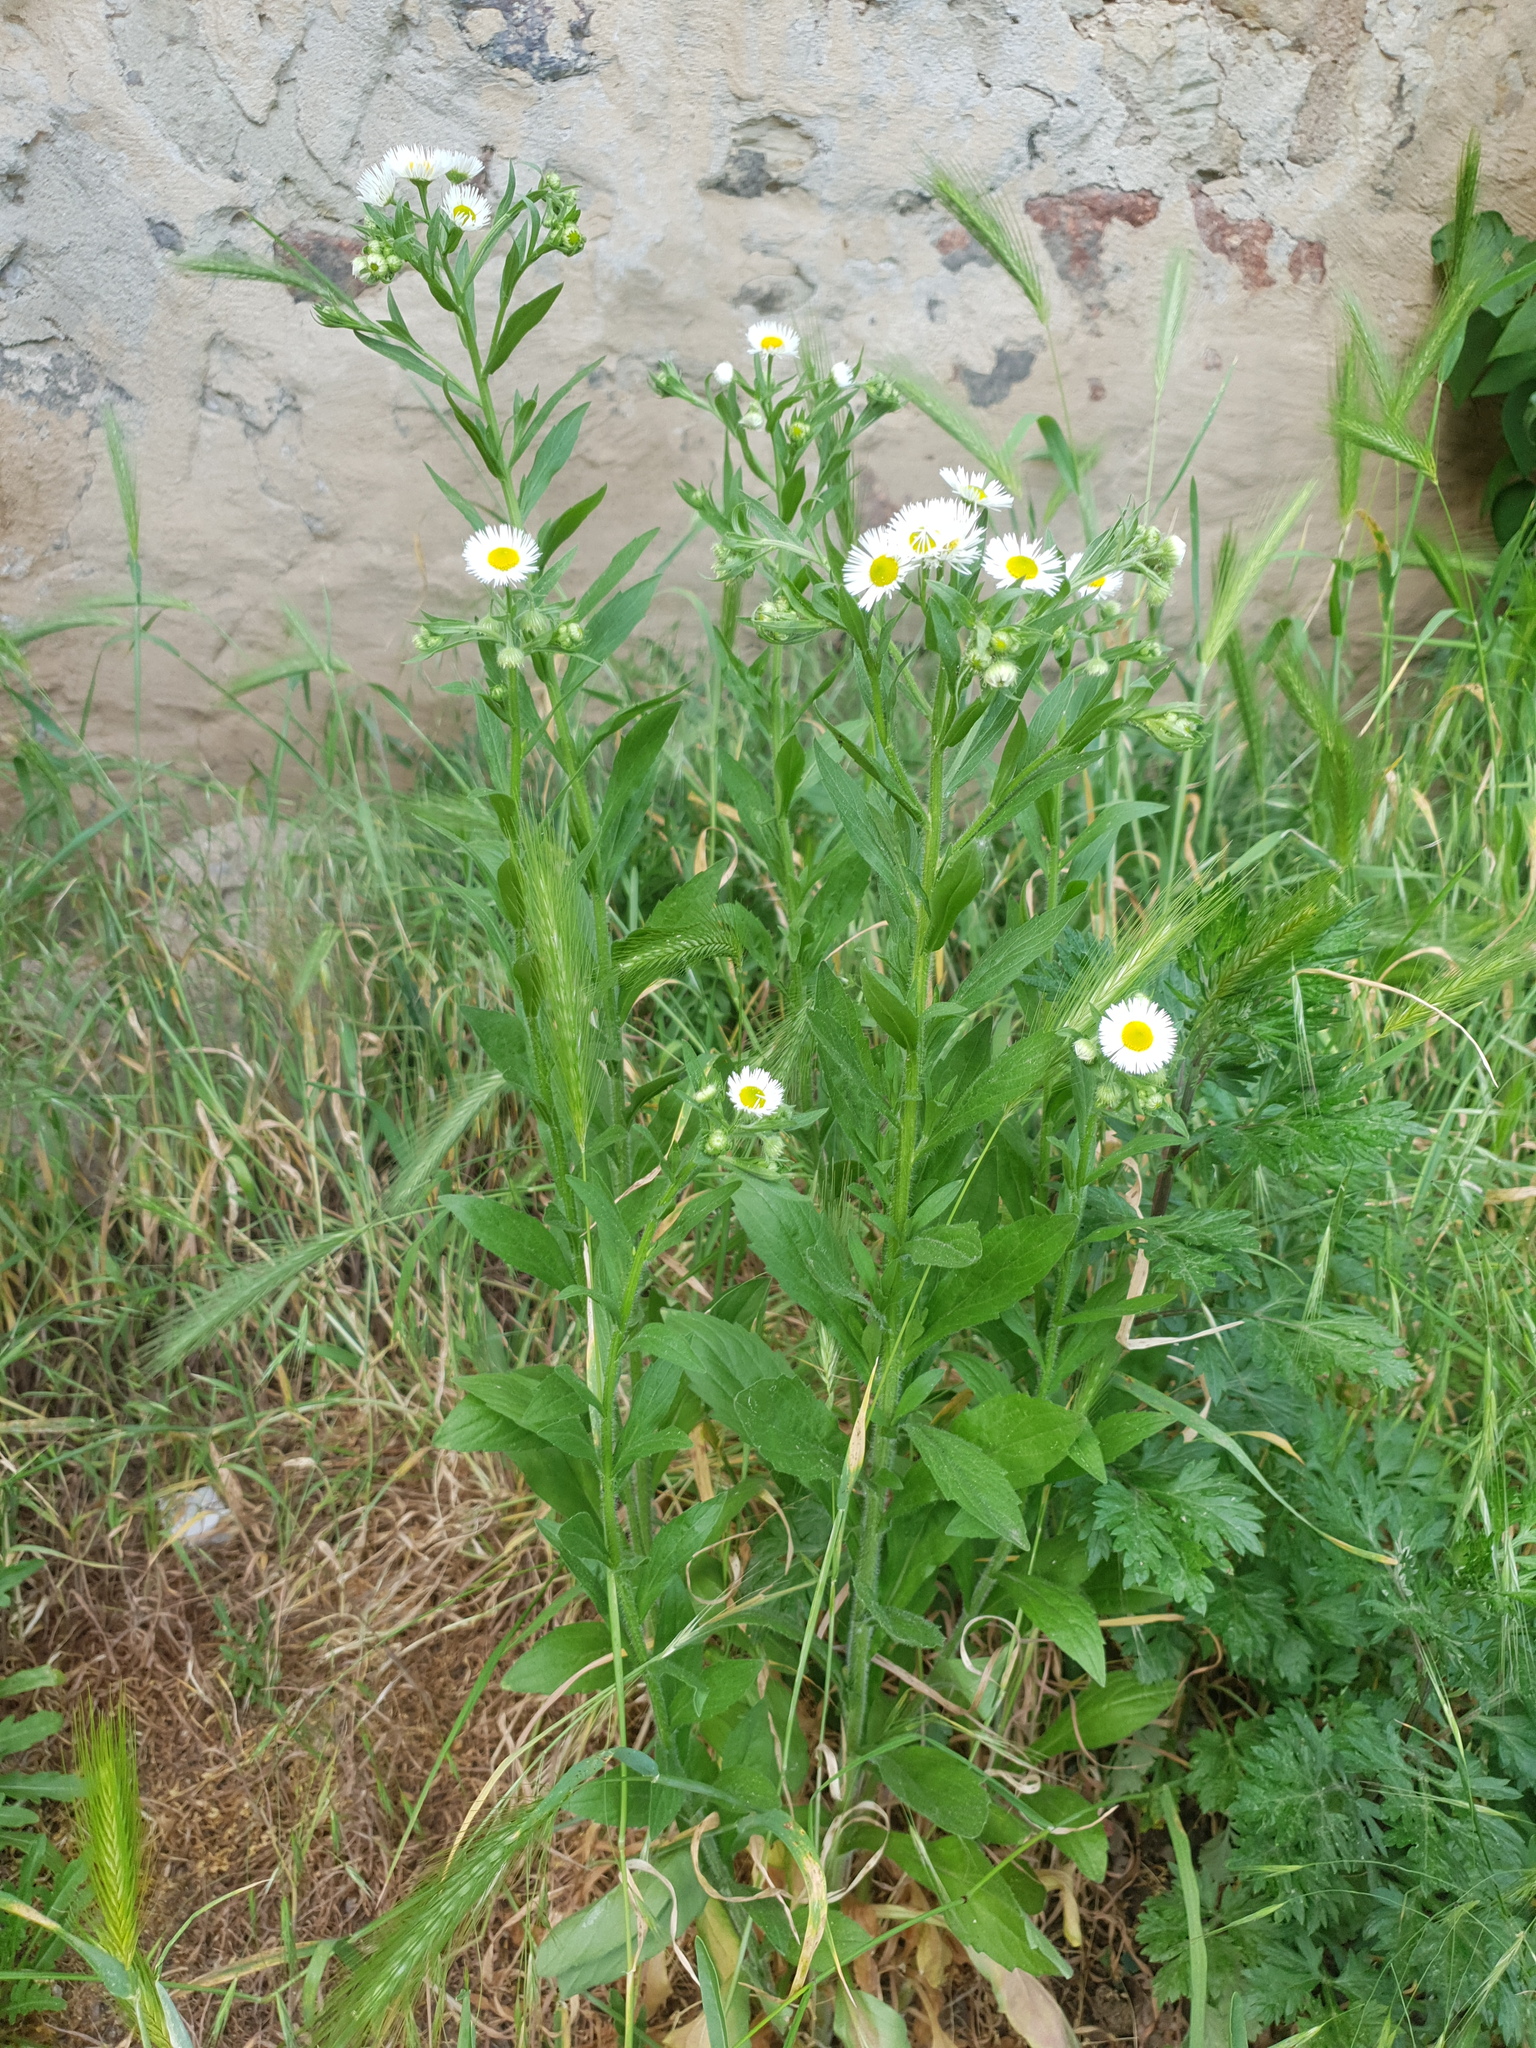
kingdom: Plantae
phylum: Tracheophyta
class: Liliopsida
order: Poales
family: Poaceae
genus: Hordeum
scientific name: Hordeum murinum
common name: Wall barley
